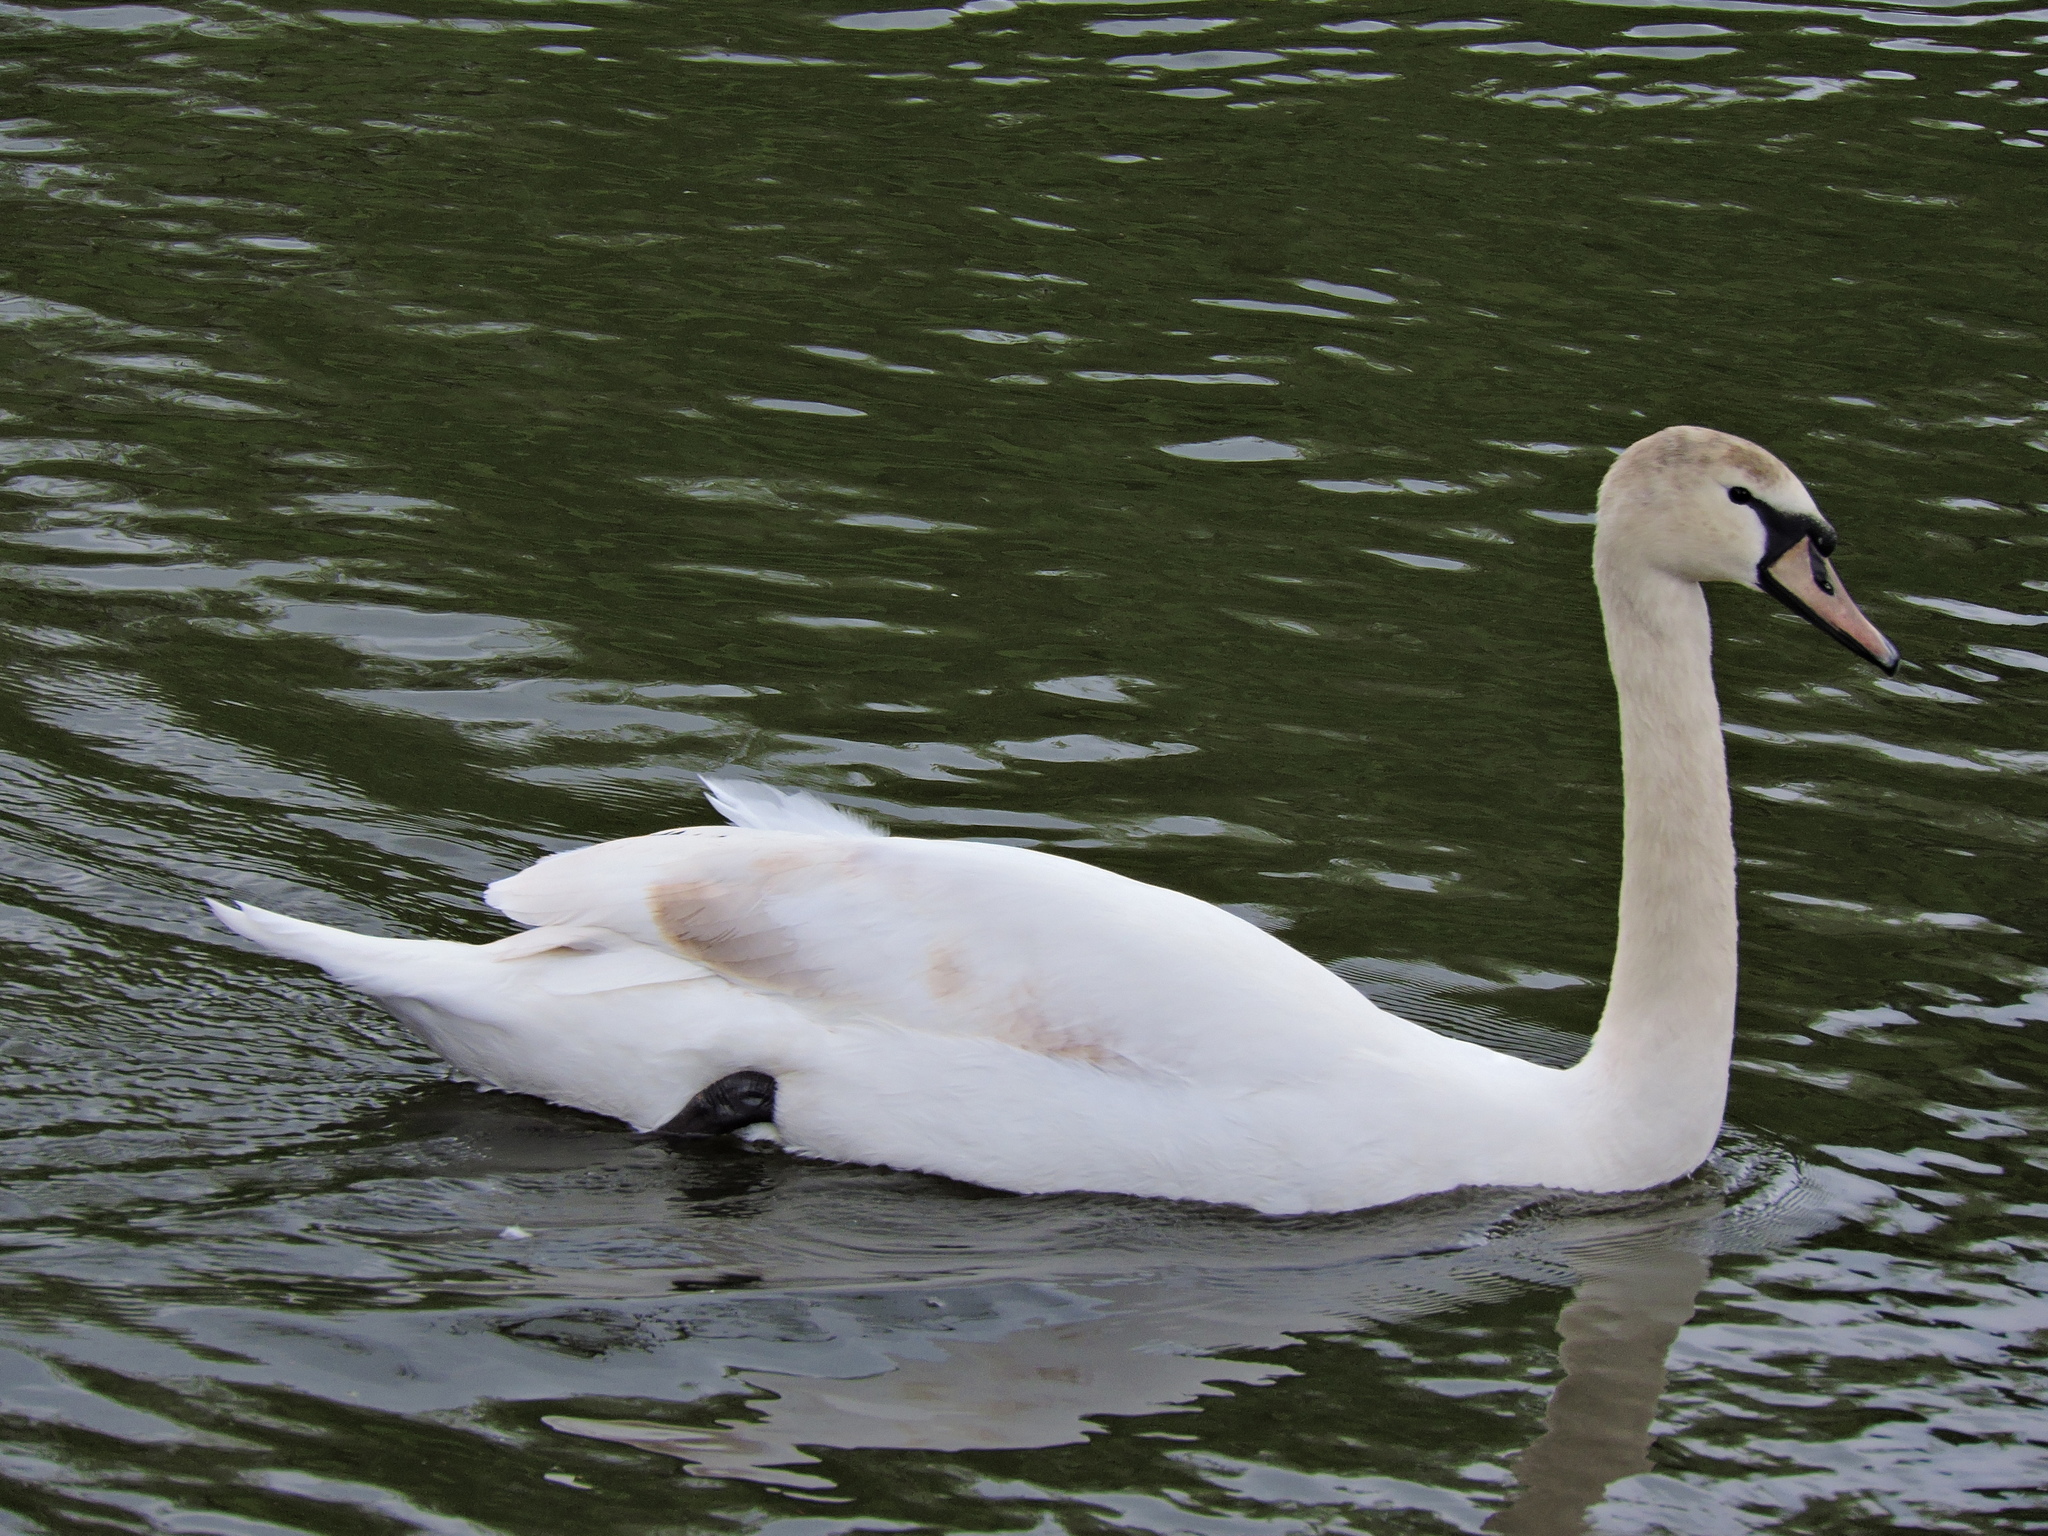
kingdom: Animalia
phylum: Chordata
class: Aves
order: Anseriformes
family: Anatidae
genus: Cygnus
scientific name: Cygnus olor
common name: Mute swan
